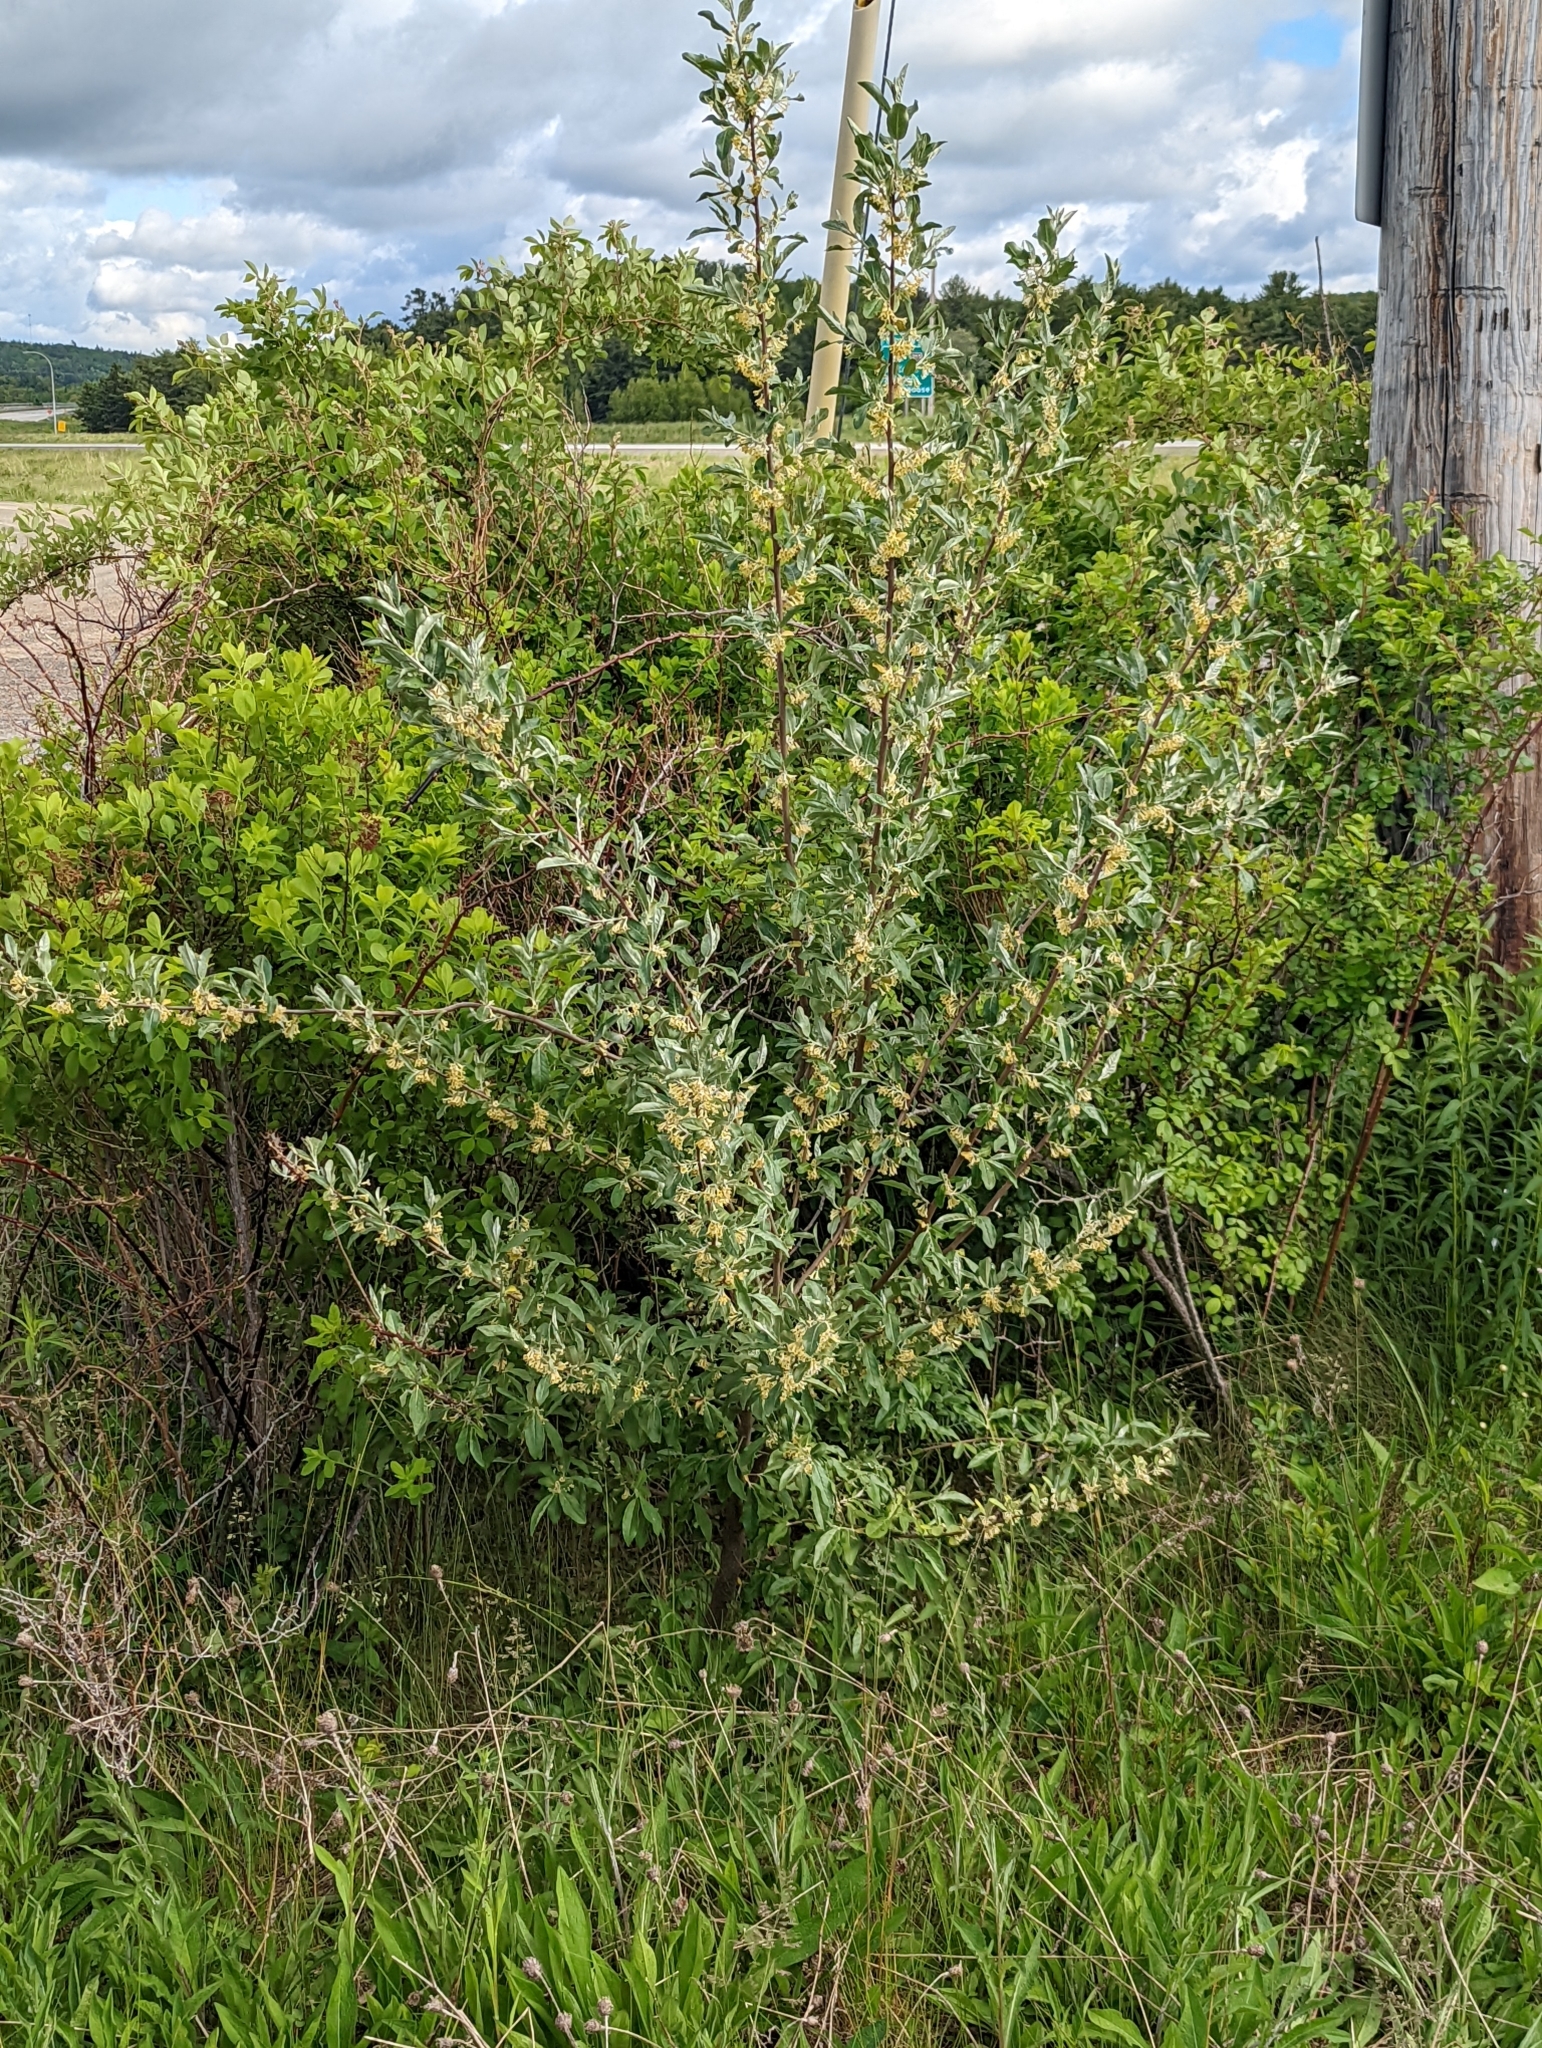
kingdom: Plantae
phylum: Tracheophyta
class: Magnoliopsida
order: Rosales
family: Elaeagnaceae
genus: Elaeagnus
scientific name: Elaeagnus umbellata
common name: Autumn olive
